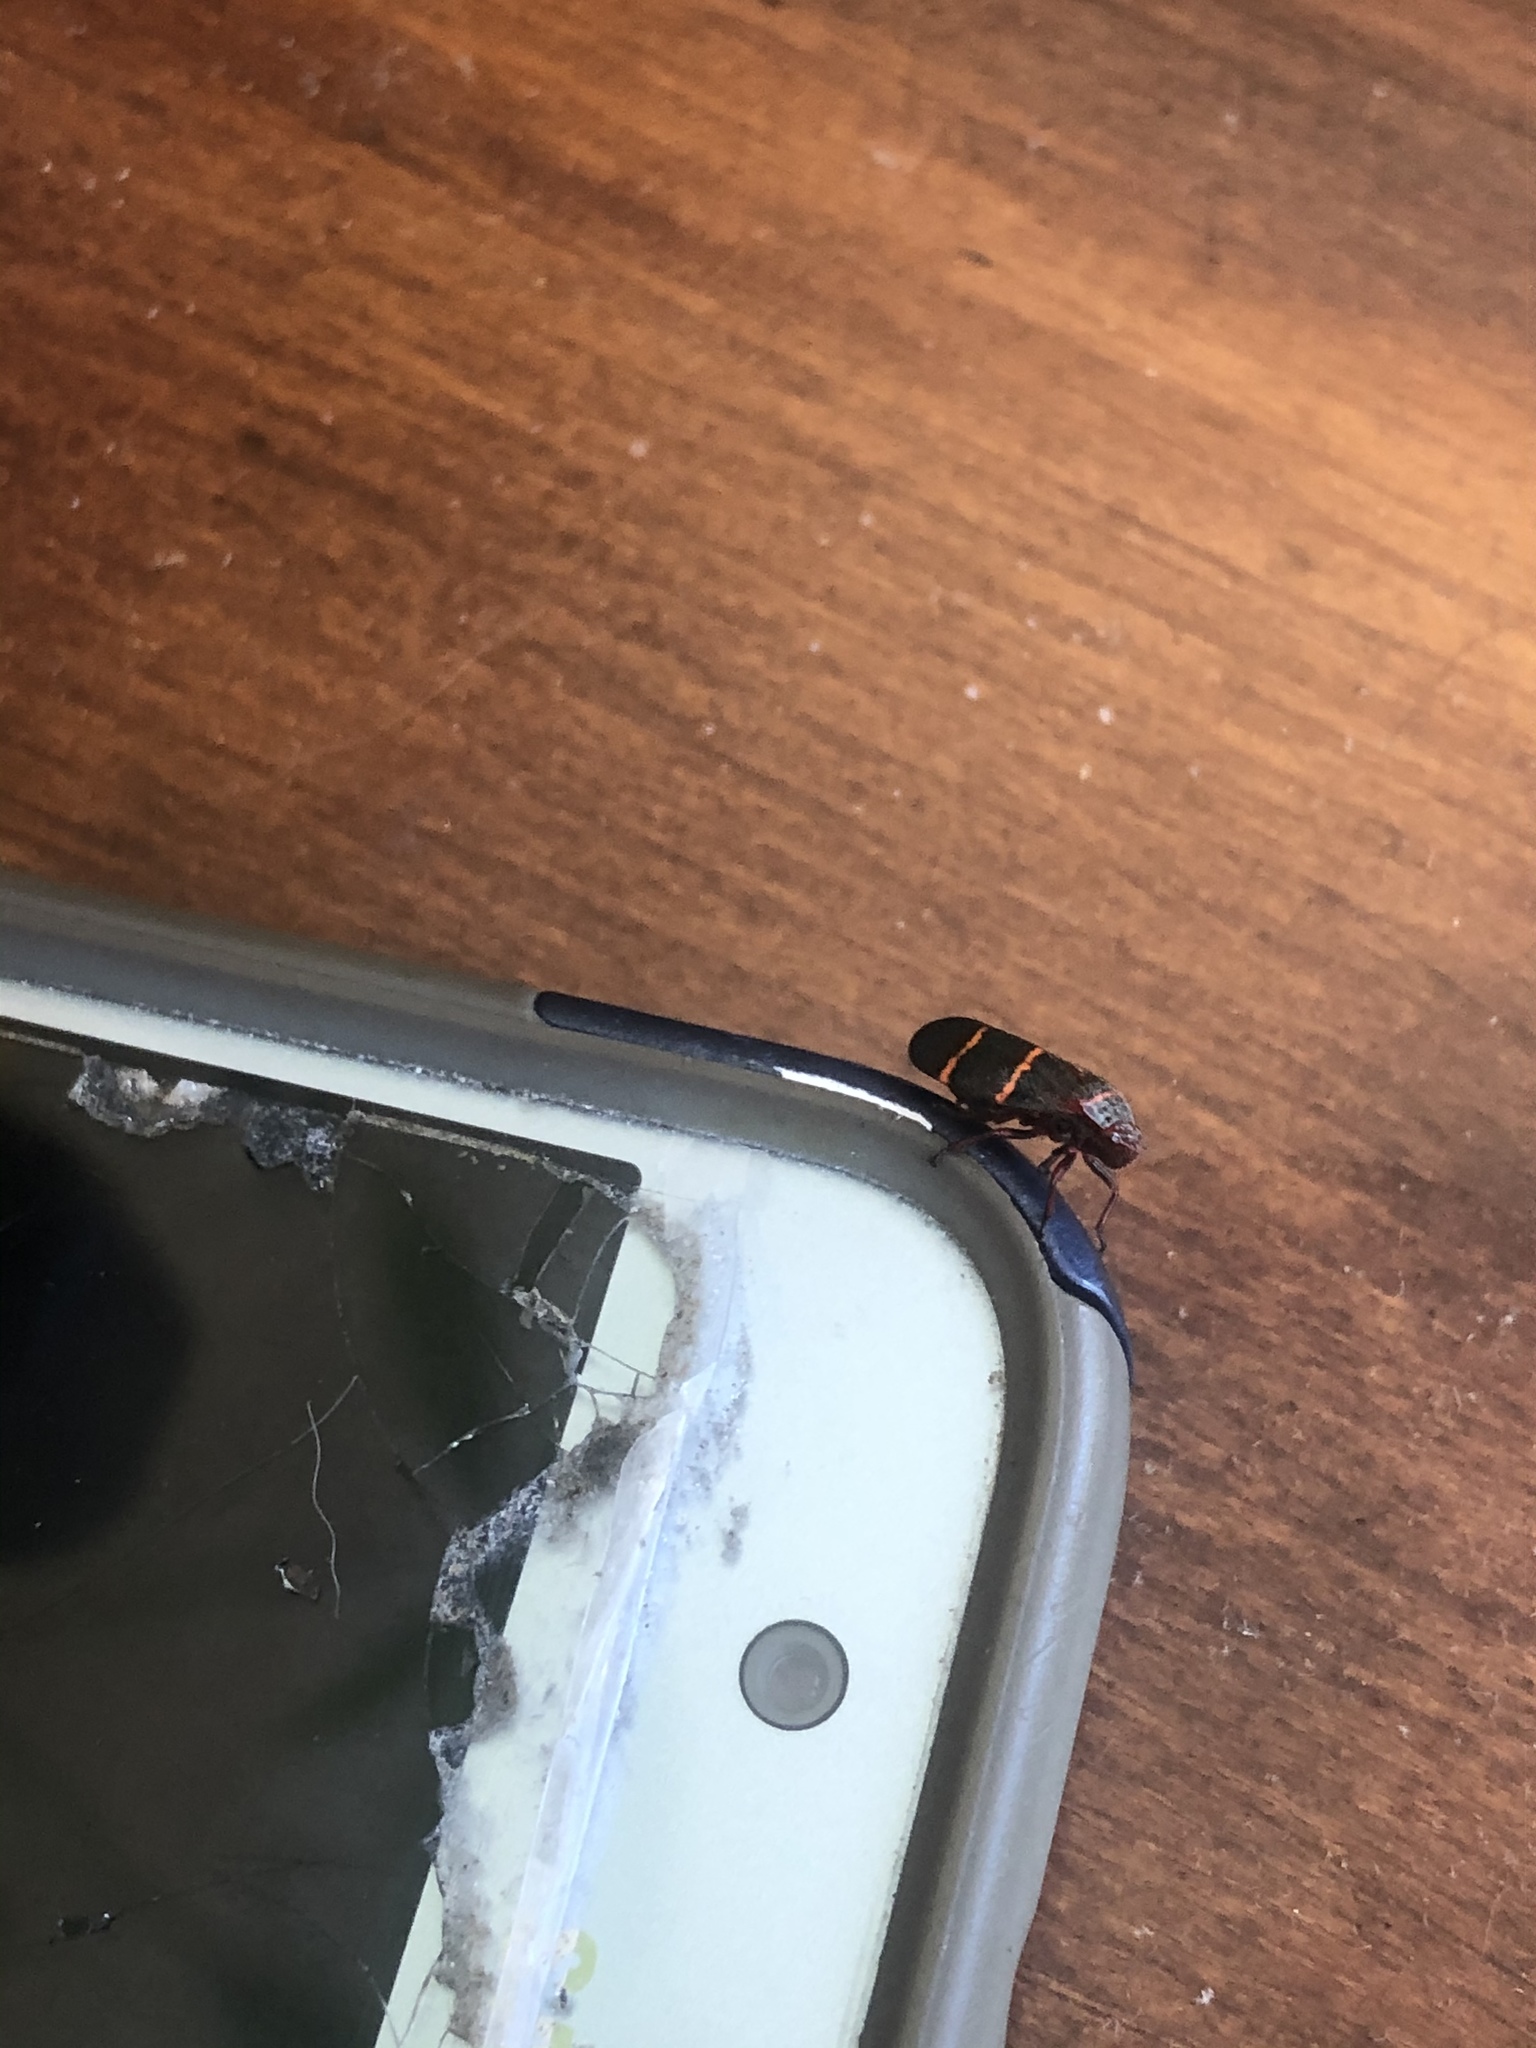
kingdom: Animalia
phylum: Arthropoda
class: Insecta
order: Hemiptera
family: Cercopidae
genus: Prosapia
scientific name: Prosapia bicincta
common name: Twolined spittlebug
